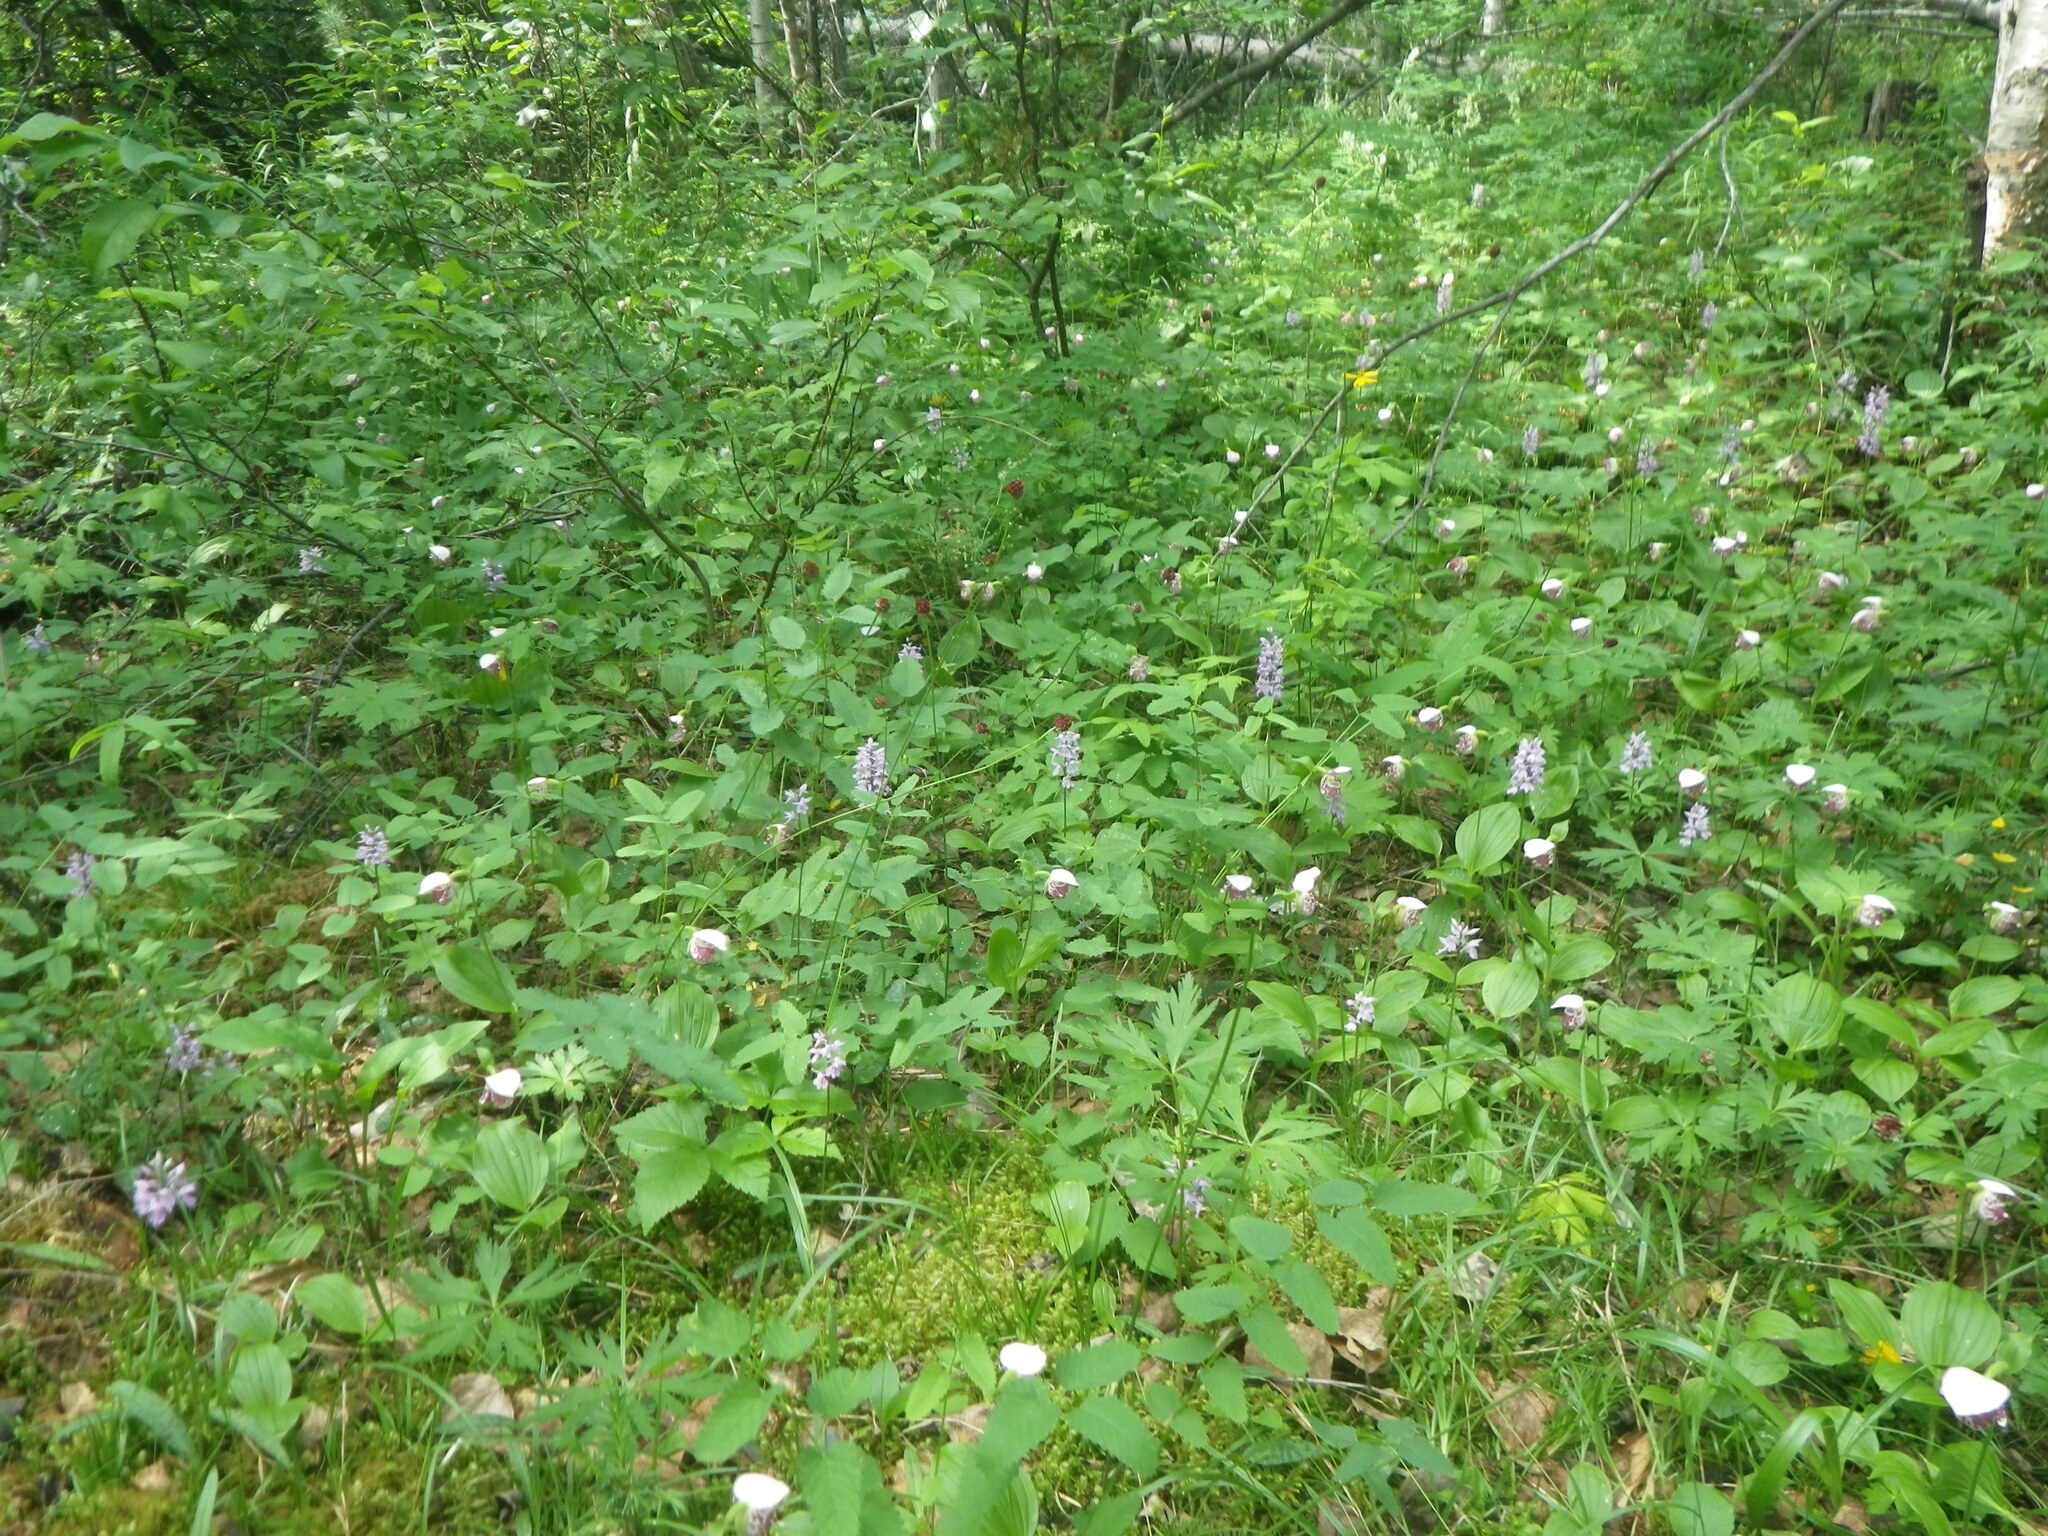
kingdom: Plantae
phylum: Tracheophyta
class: Liliopsida
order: Asparagales
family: Orchidaceae
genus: Dactylorhiza
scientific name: Dactylorhiza maculata
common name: Heath spotted-orchid
